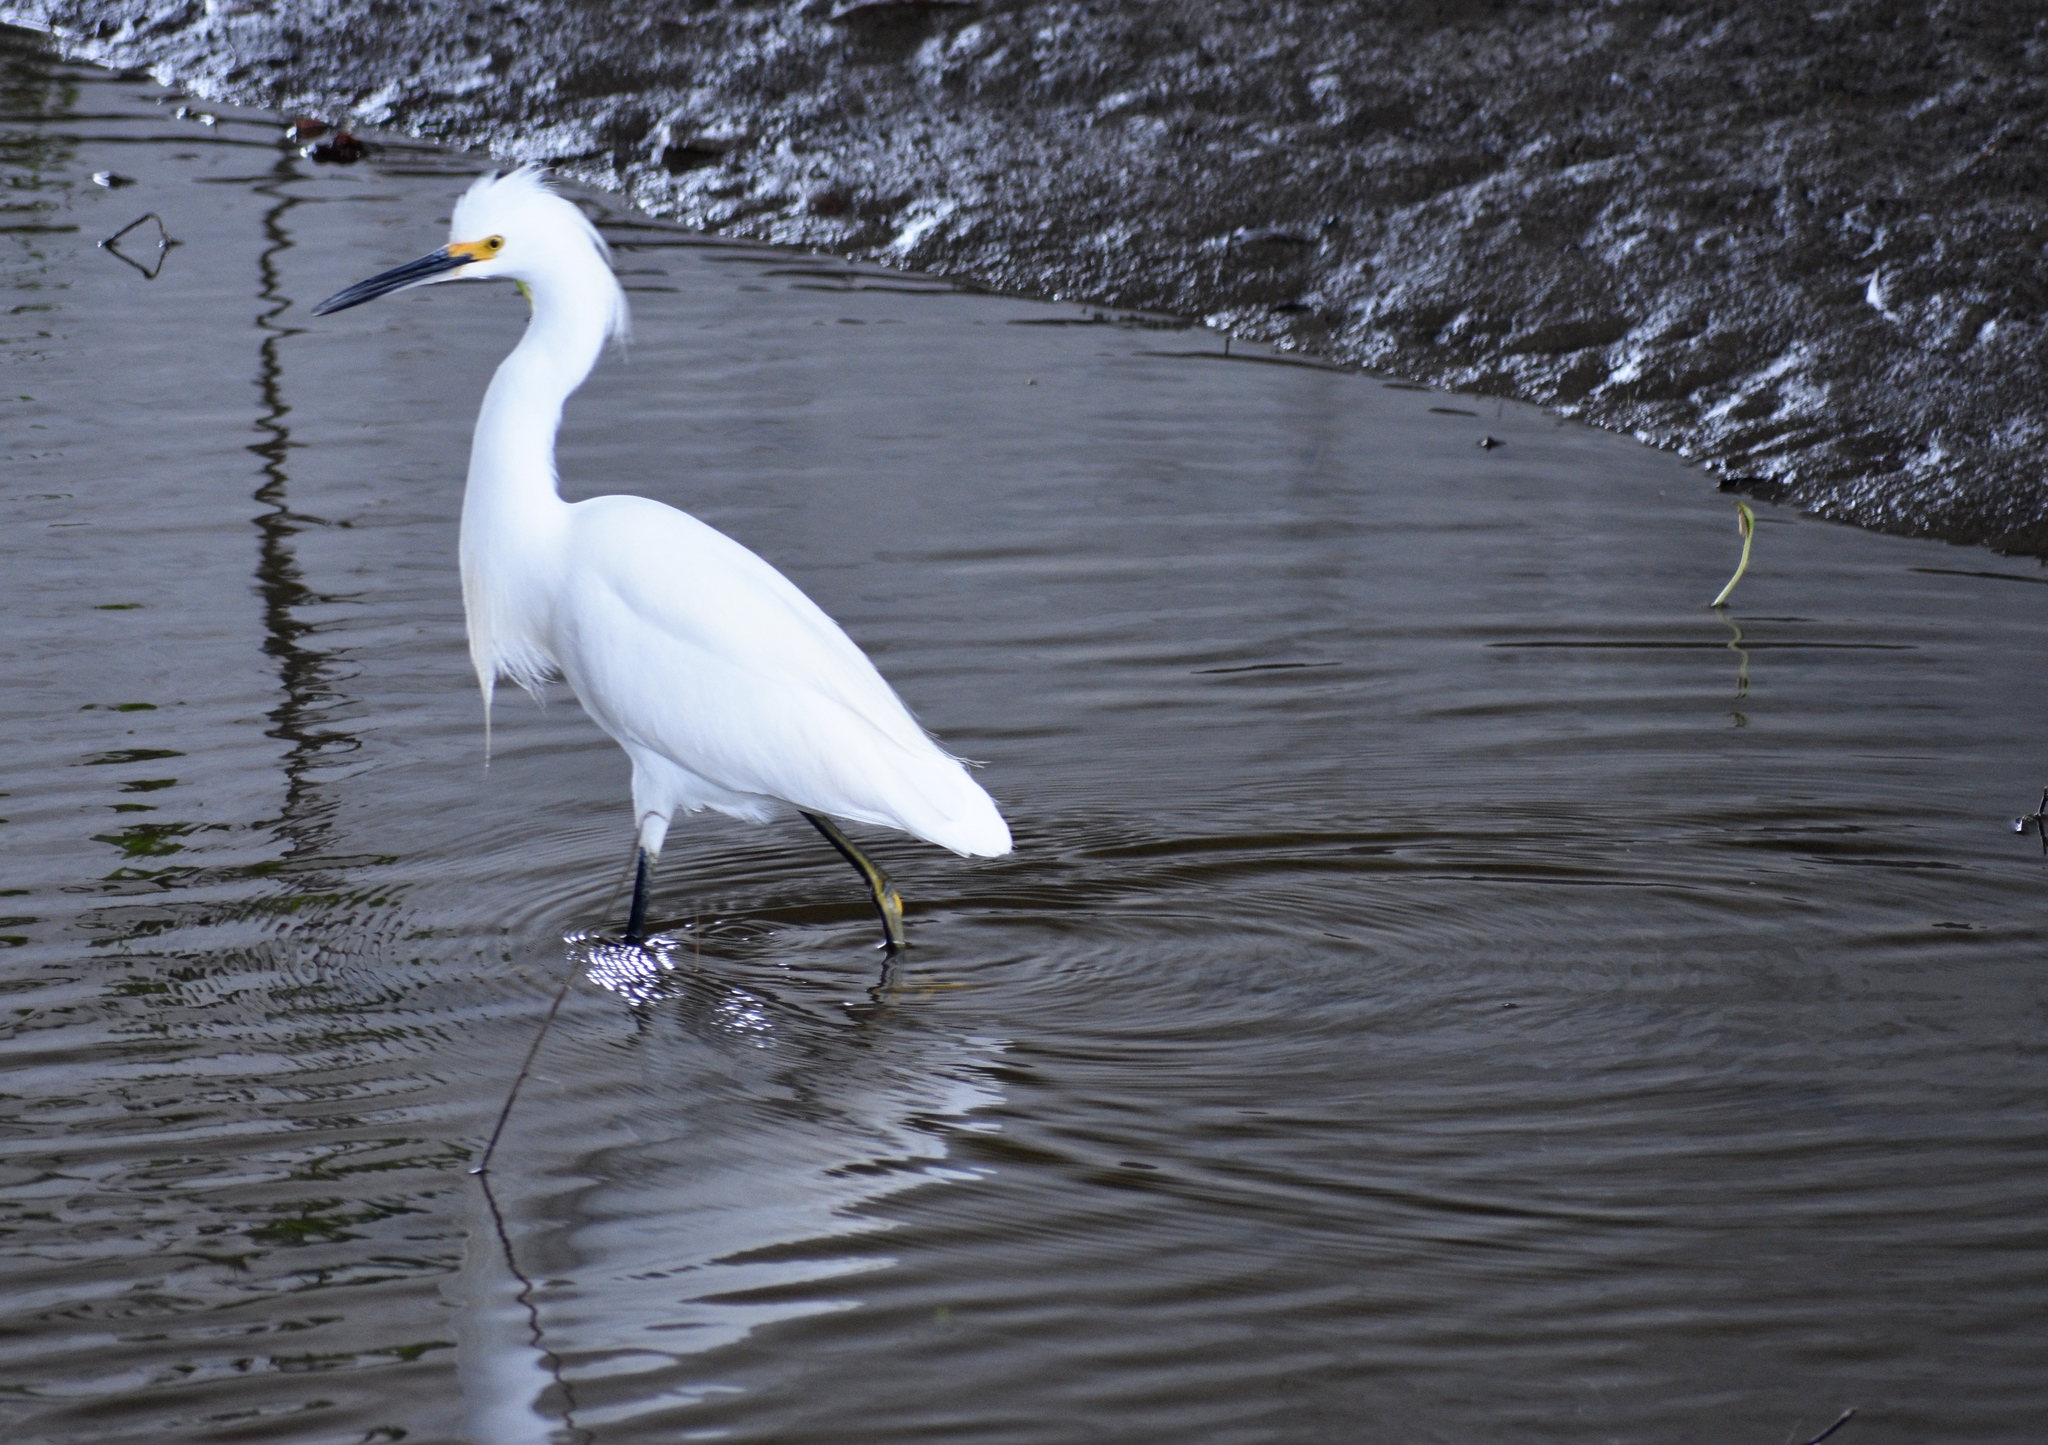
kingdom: Animalia
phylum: Chordata
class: Aves
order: Pelecaniformes
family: Ardeidae
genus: Egretta
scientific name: Egretta thula
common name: Snowy egret
